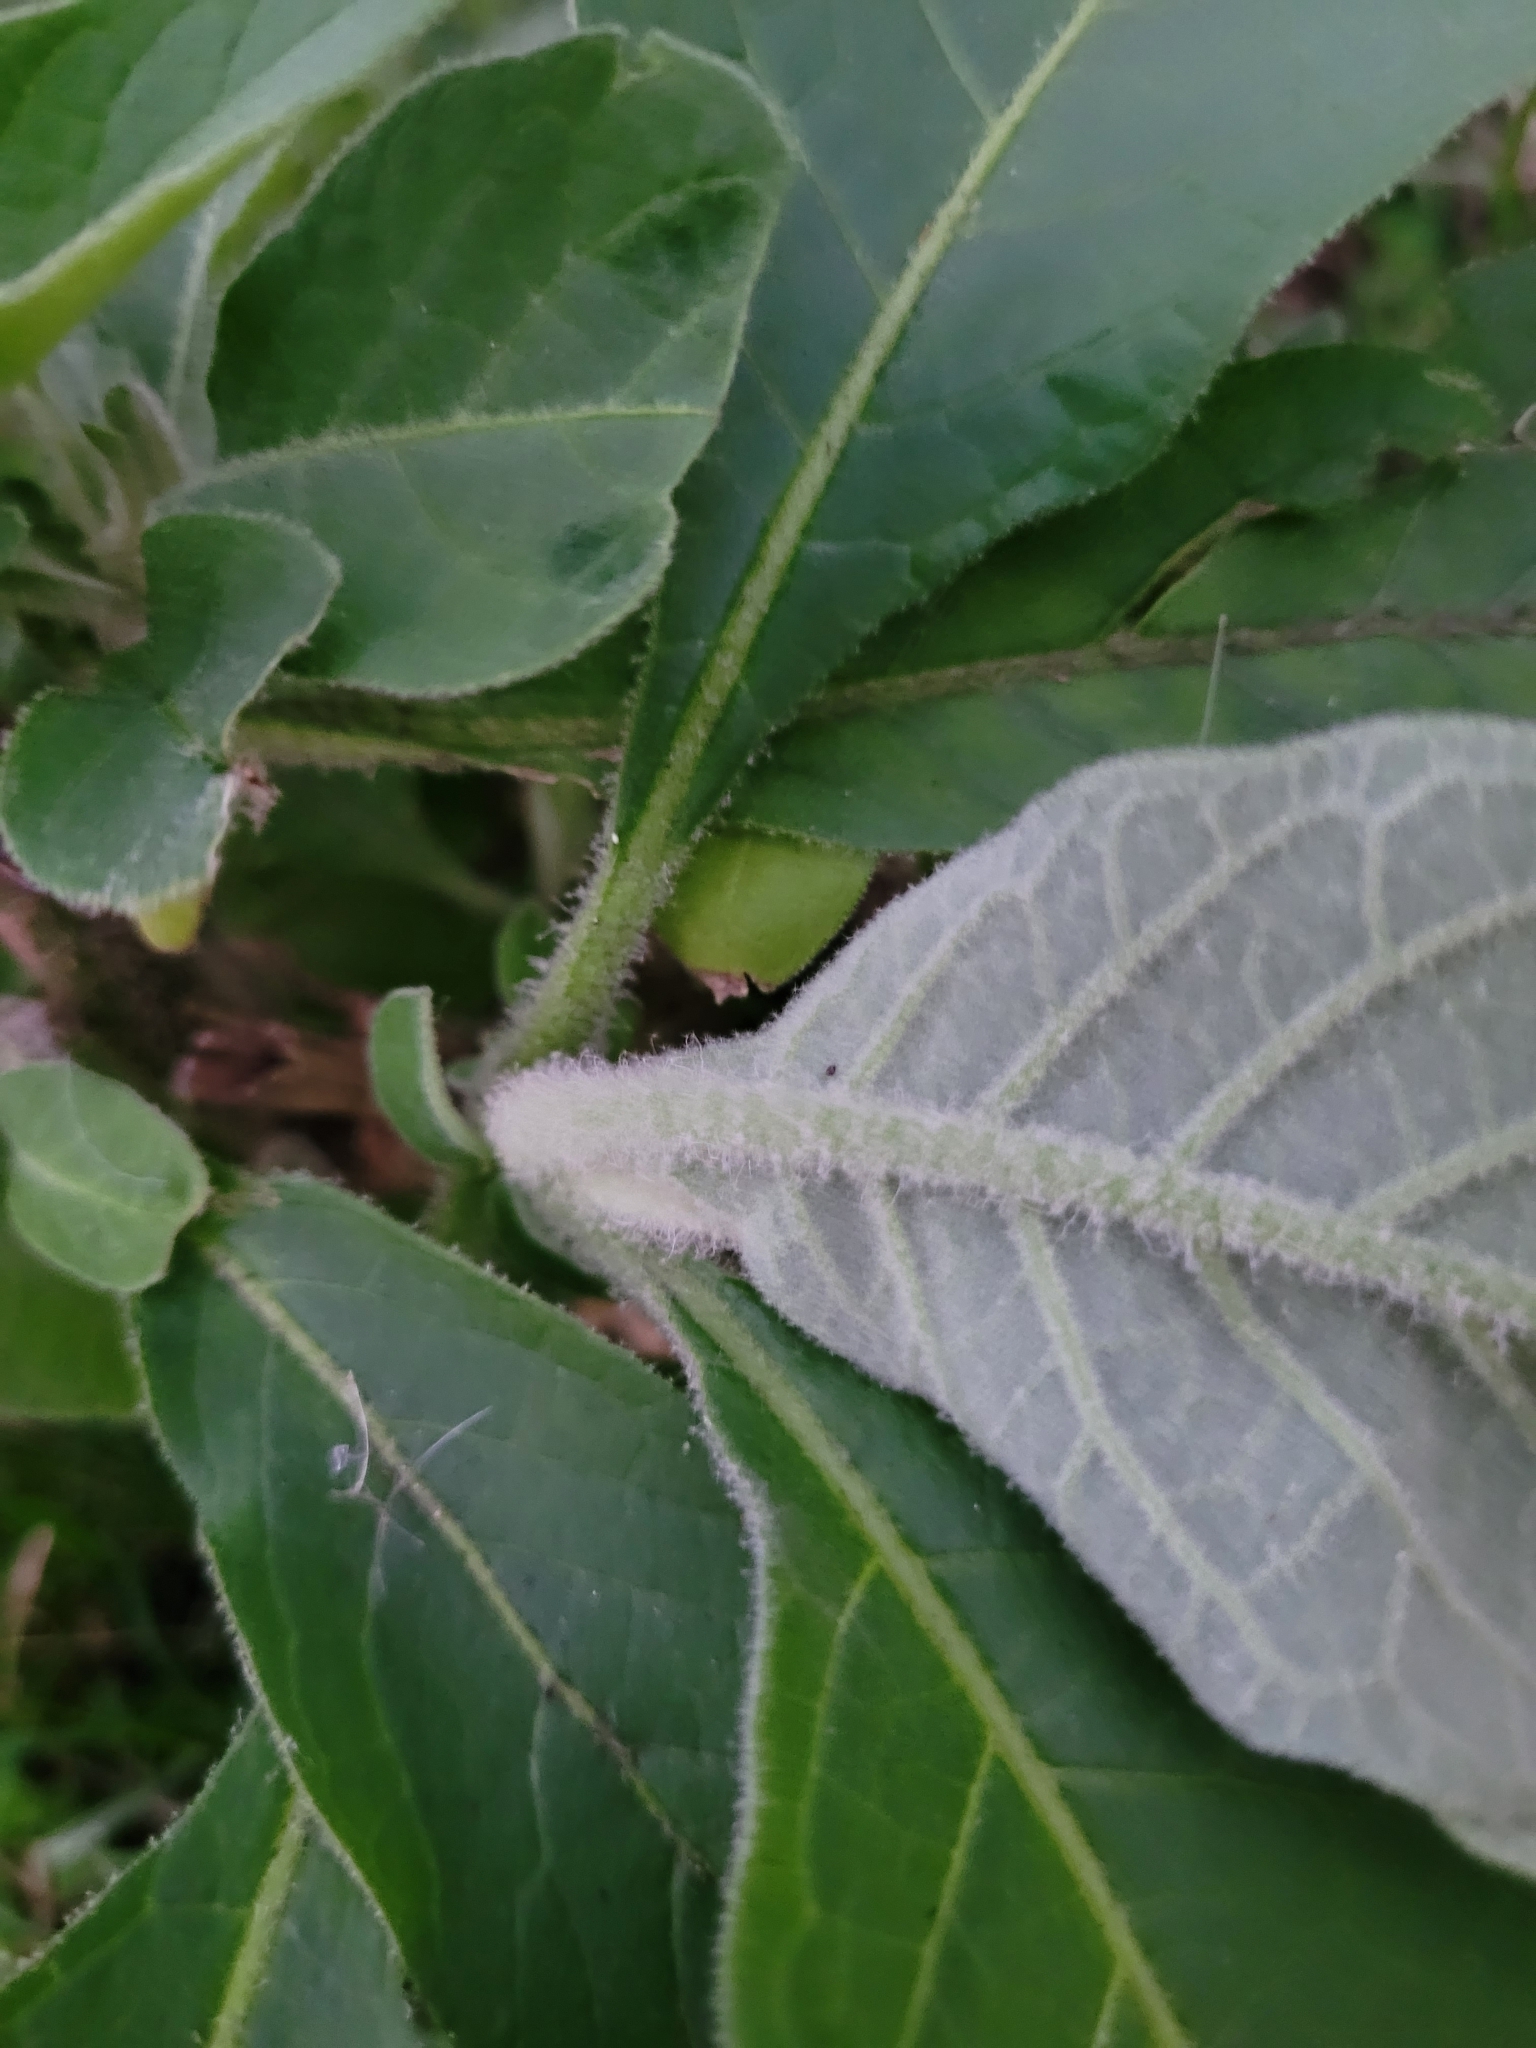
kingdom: Plantae
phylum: Tracheophyta
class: Magnoliopsida
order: Solanales
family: Solanaceae
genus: Solanum
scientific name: Solanum mauritianum
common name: Earleaf nightshade
